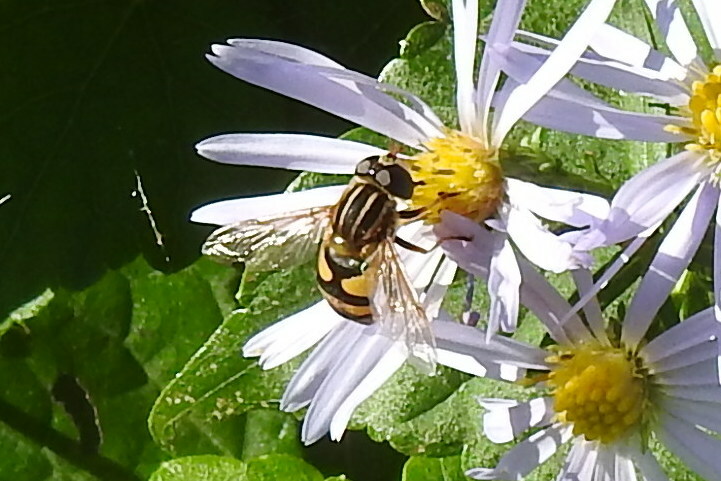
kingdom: Animalia
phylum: Arthropoda
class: Insecta
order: Diptera
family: Syrphidae
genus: Helophilus
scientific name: Helophilus fasciatus
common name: Narrow-headed marsh fly
